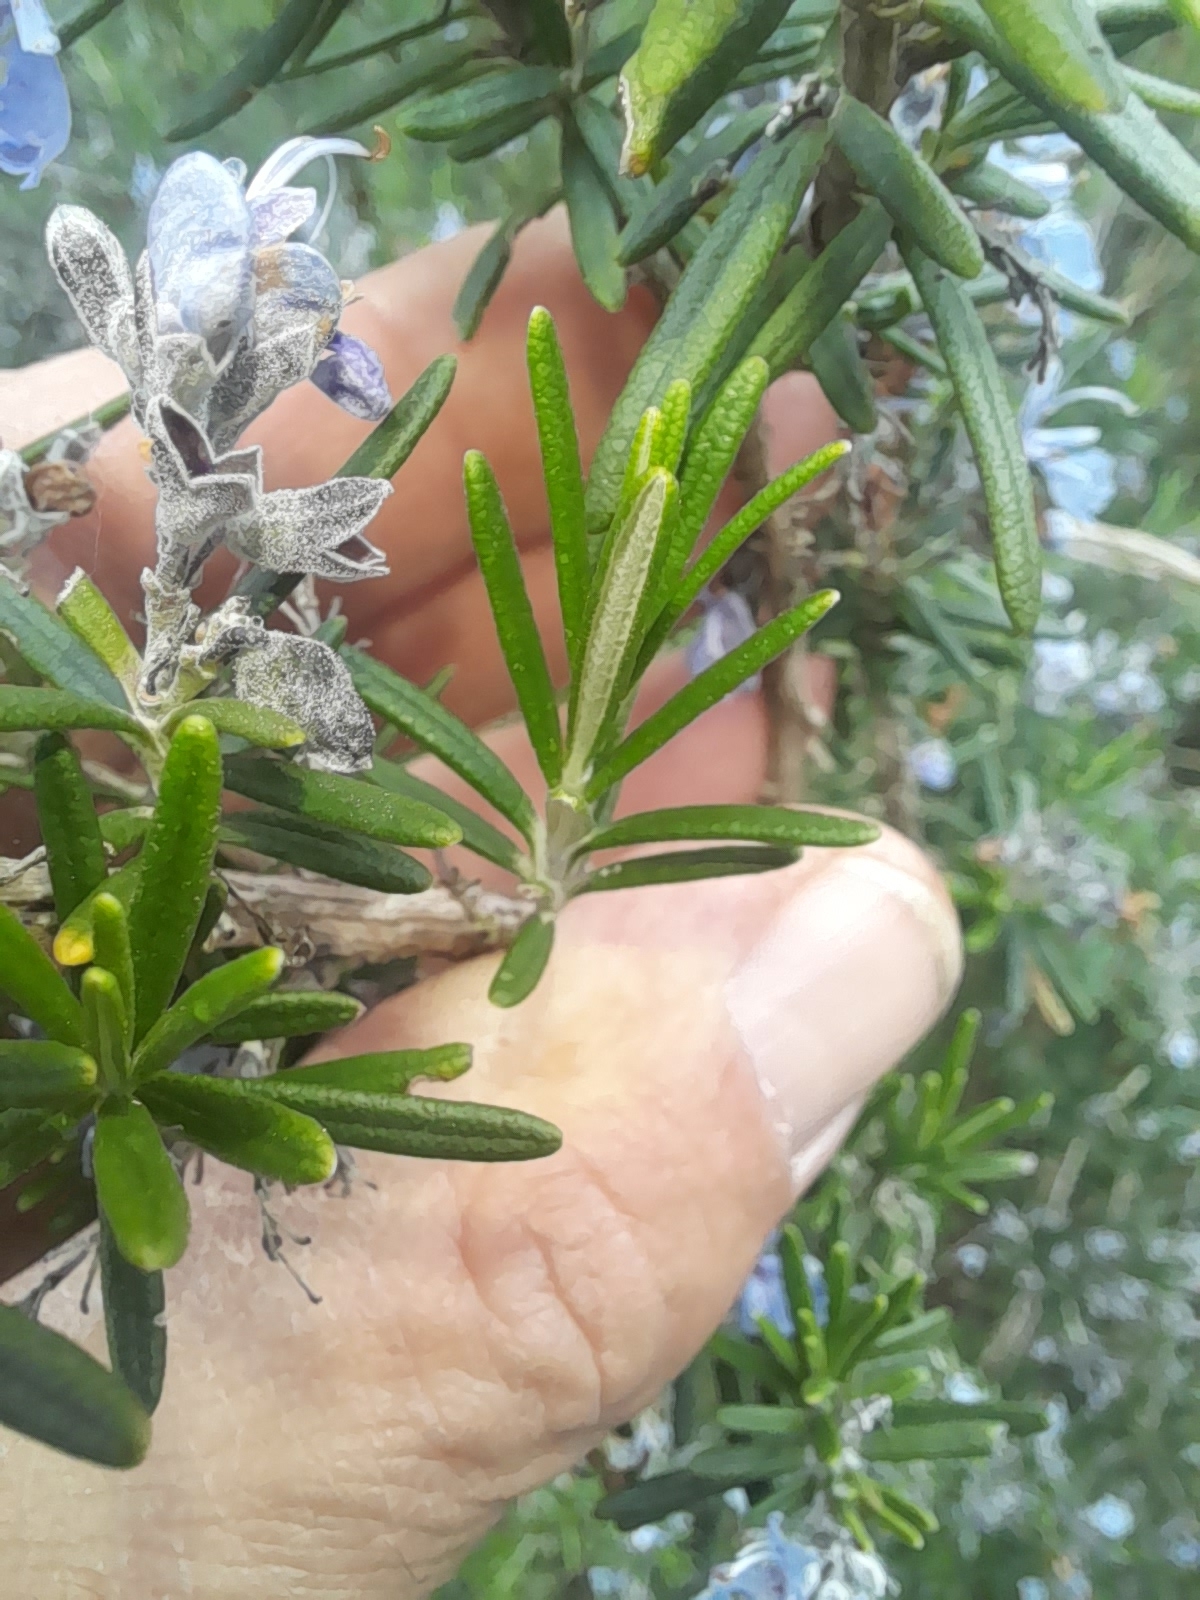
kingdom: Plantae
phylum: Tracheophyta
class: Magnoliopsida
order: Lamiales
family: Lamiaceae
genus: Salvia
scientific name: Salvia rosmarinus
